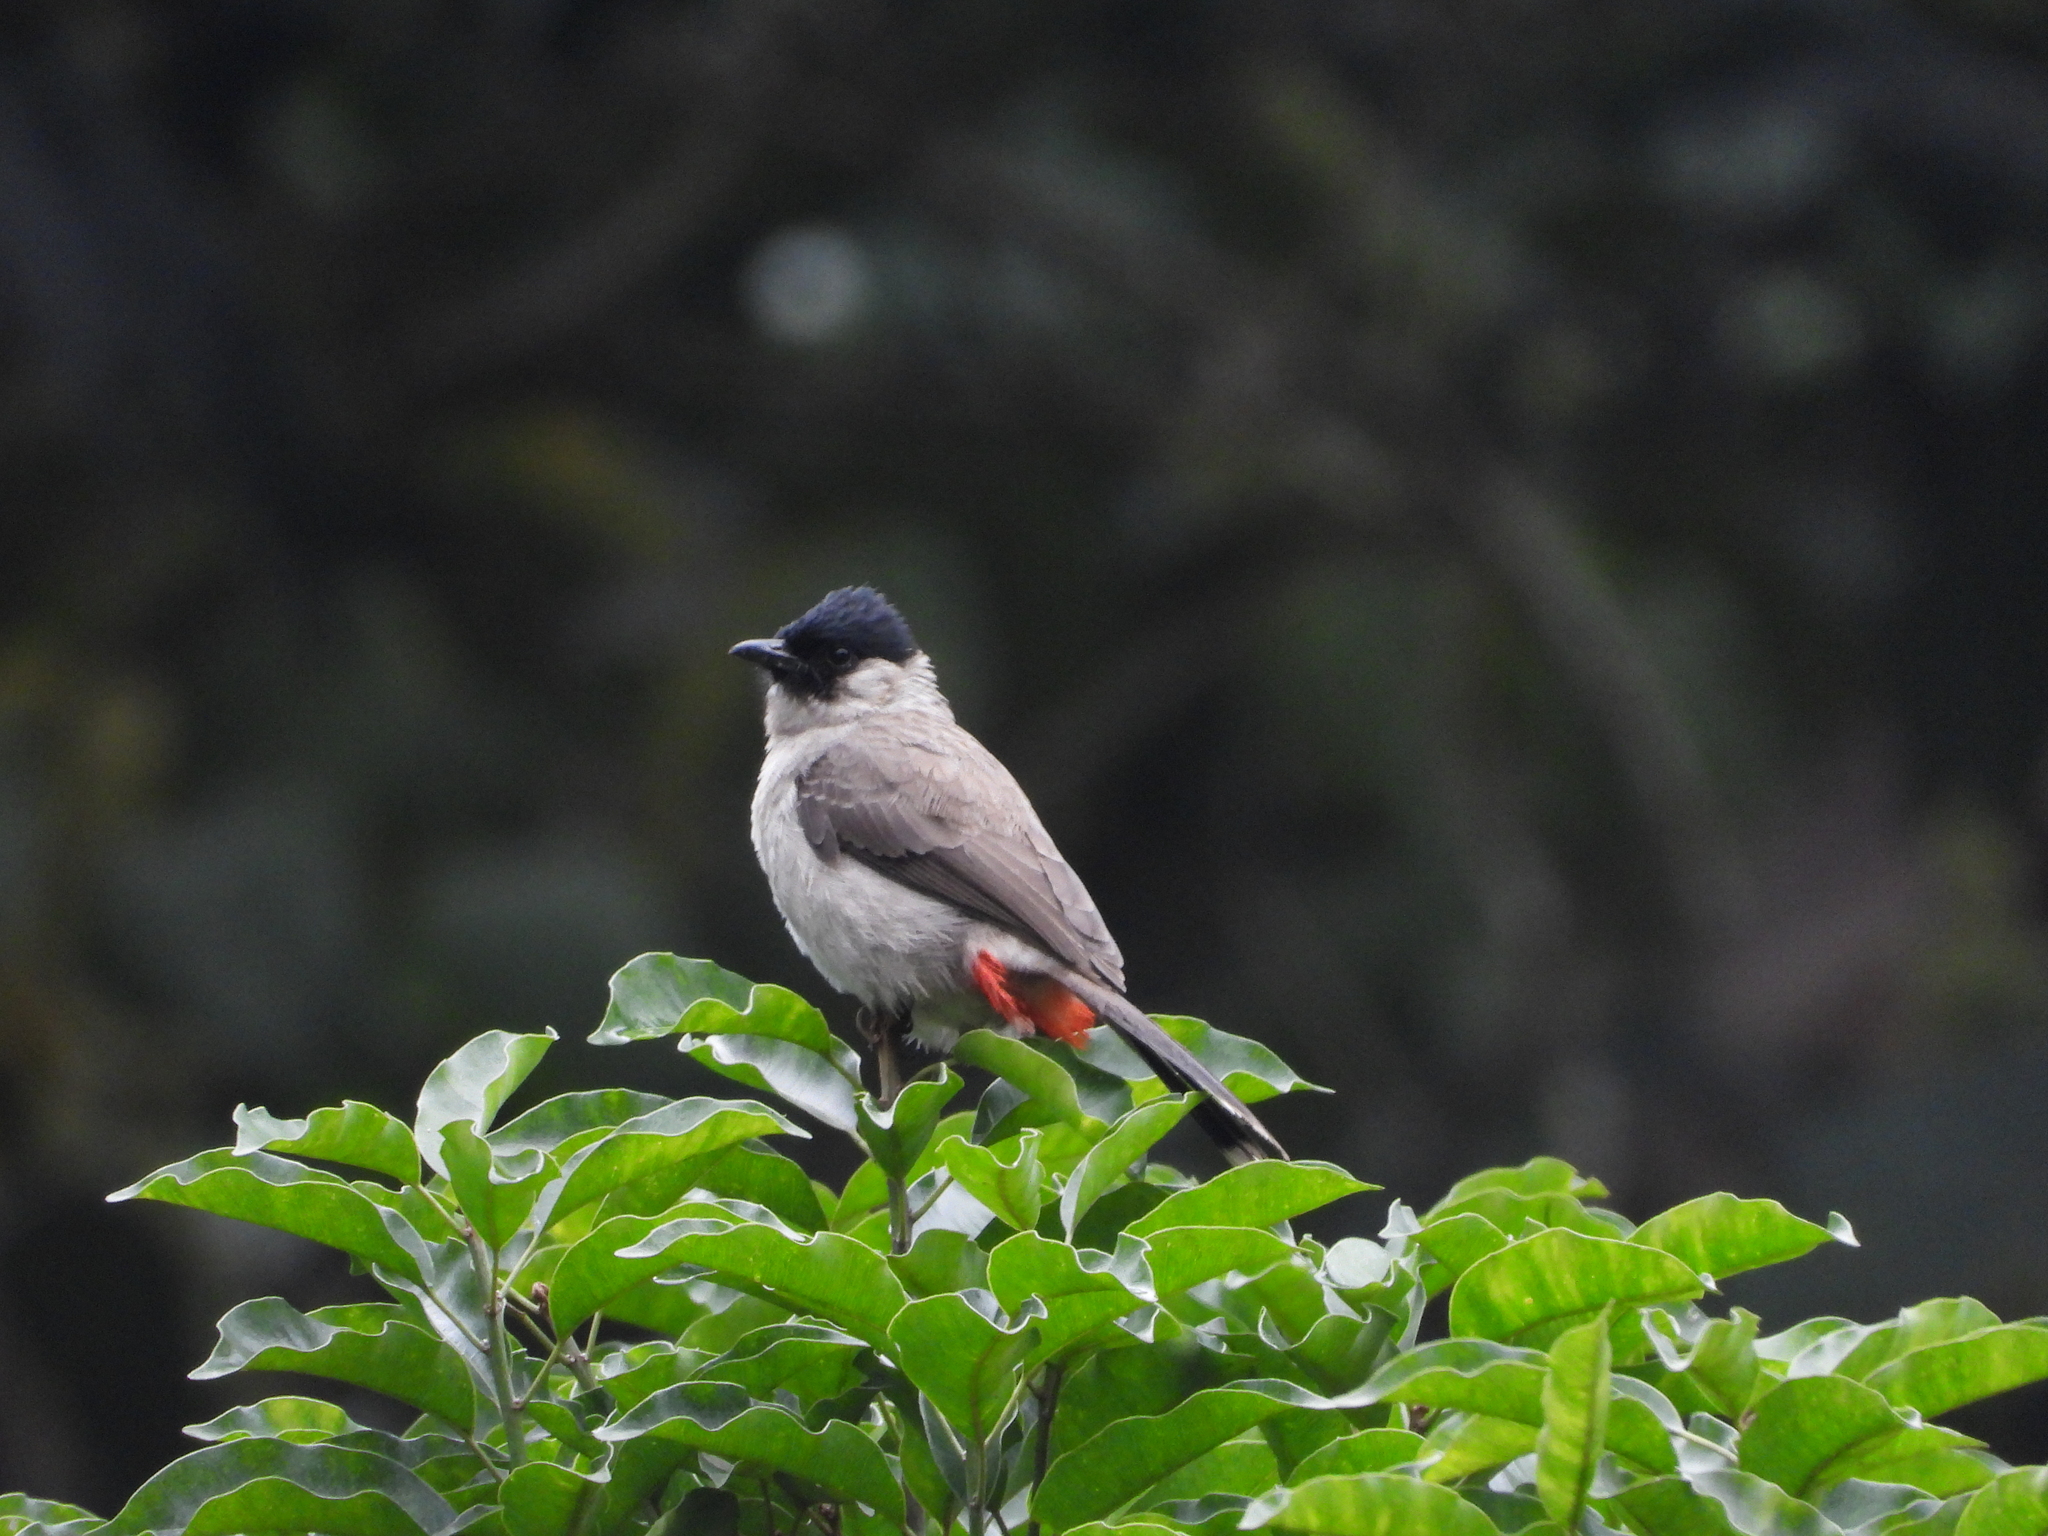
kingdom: Animalia
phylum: Chordata
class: Aves
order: Passeriformes
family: Pycnonotidae
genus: Pycnonotus
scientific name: Pycnonotus aurigaster
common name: Sooty-headed bulbul
